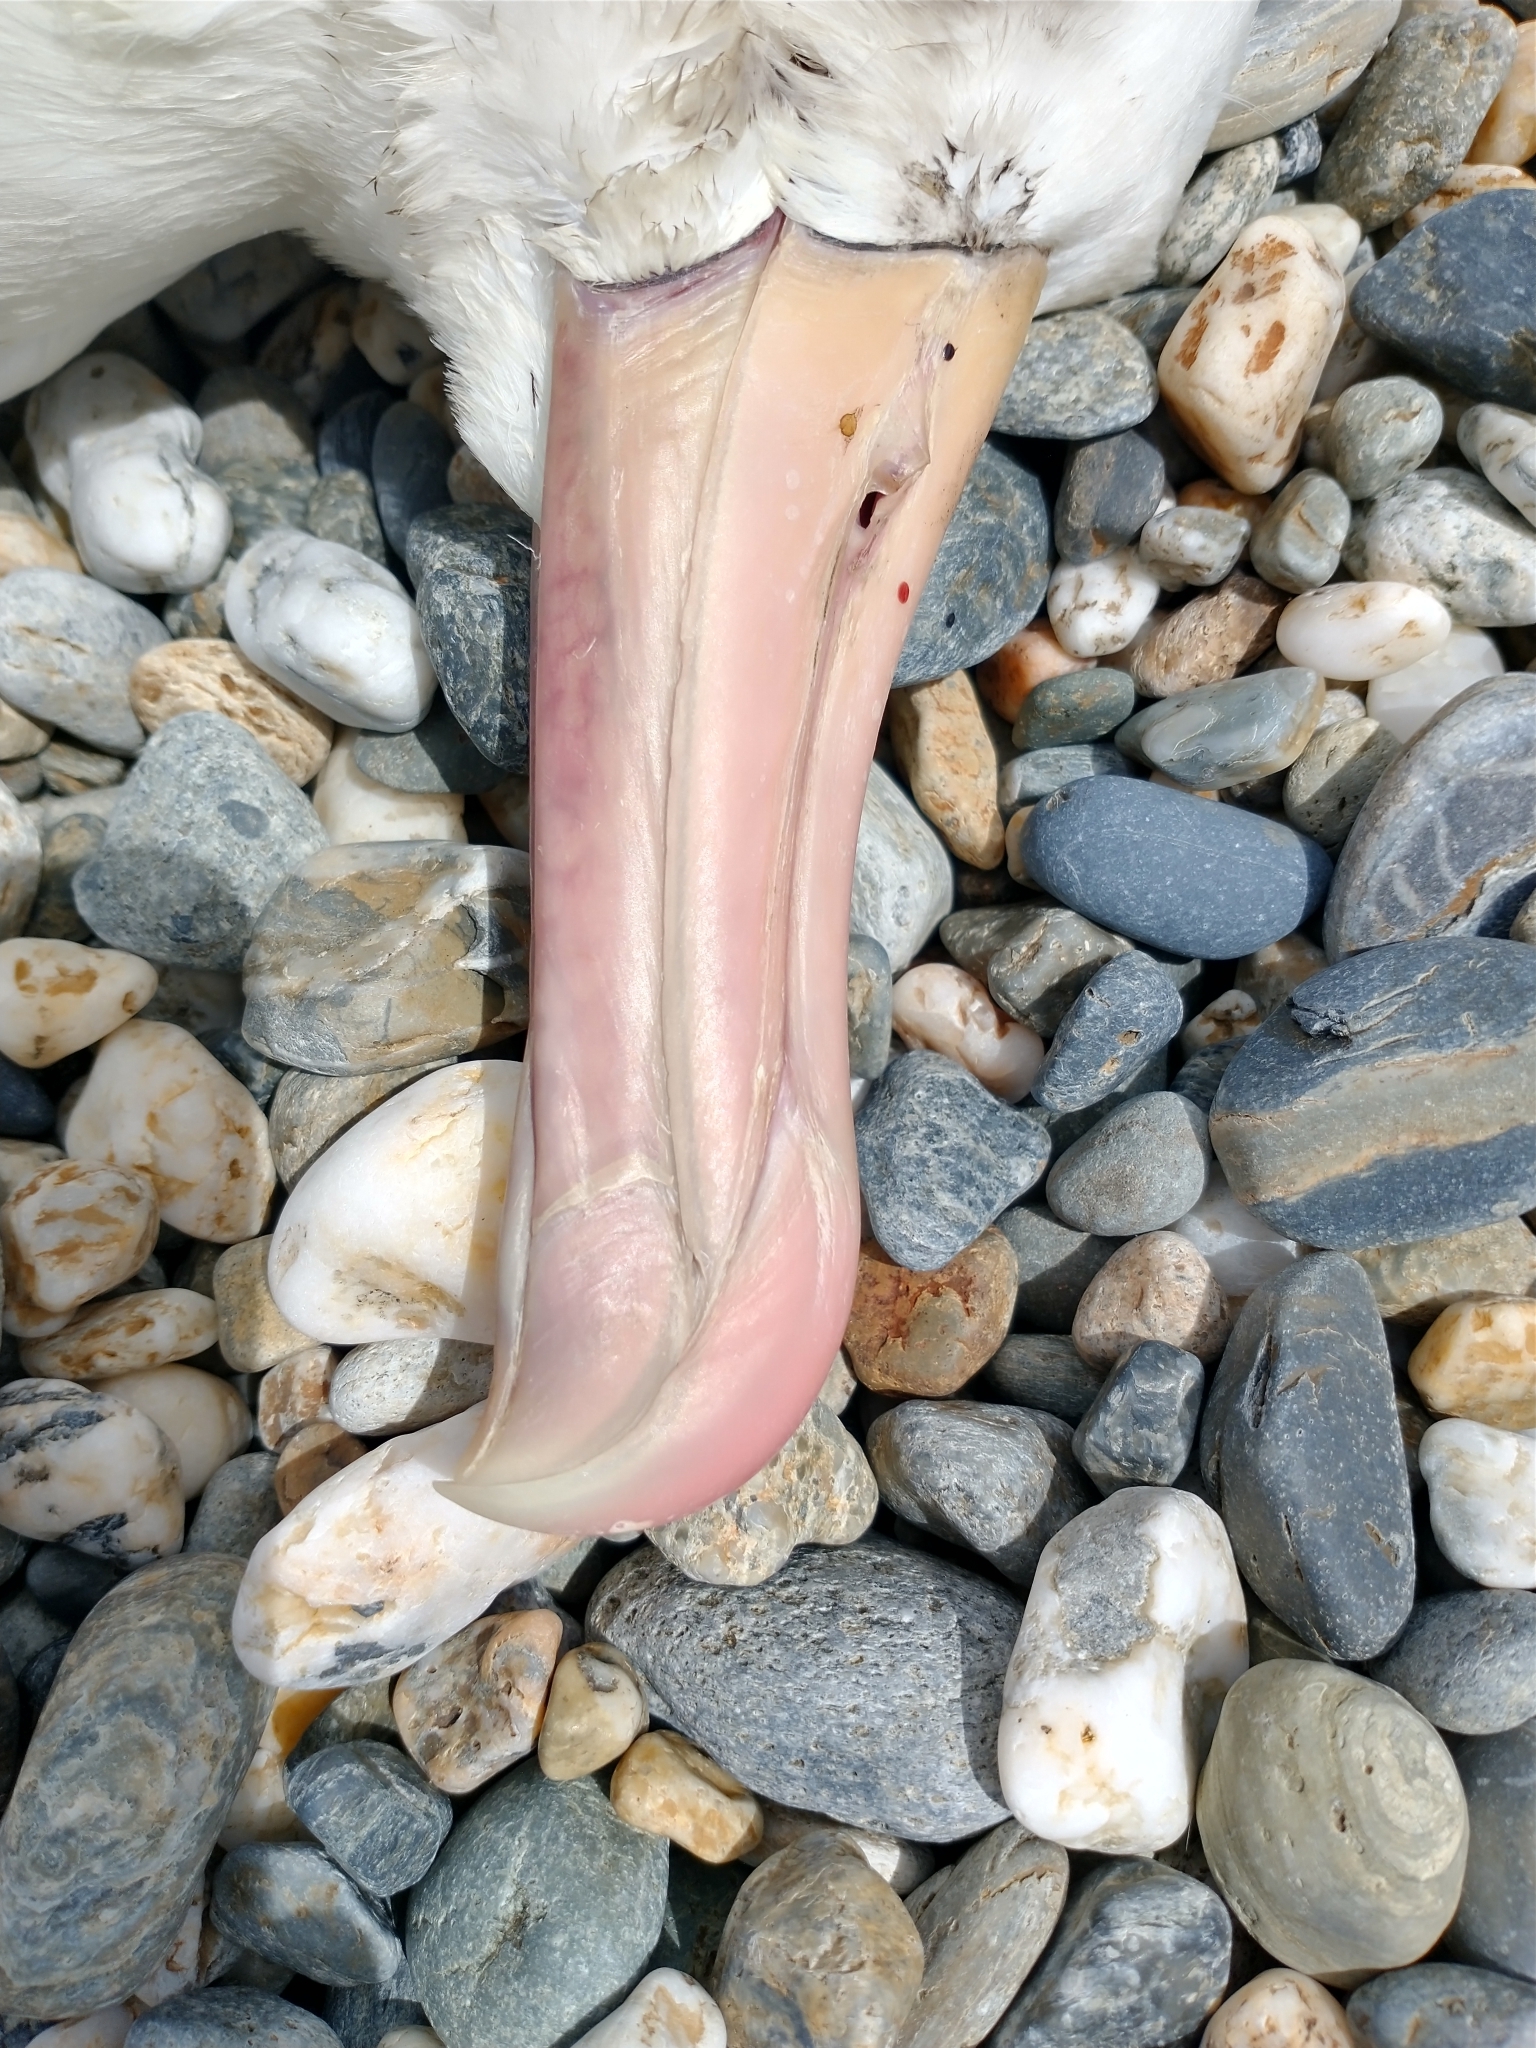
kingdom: Animalia
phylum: Chordata
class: Aves
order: Procellariiformes
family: Diomedeidae
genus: Thalassarche
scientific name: Thalassarche melanophris
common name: Black-browed albatross
